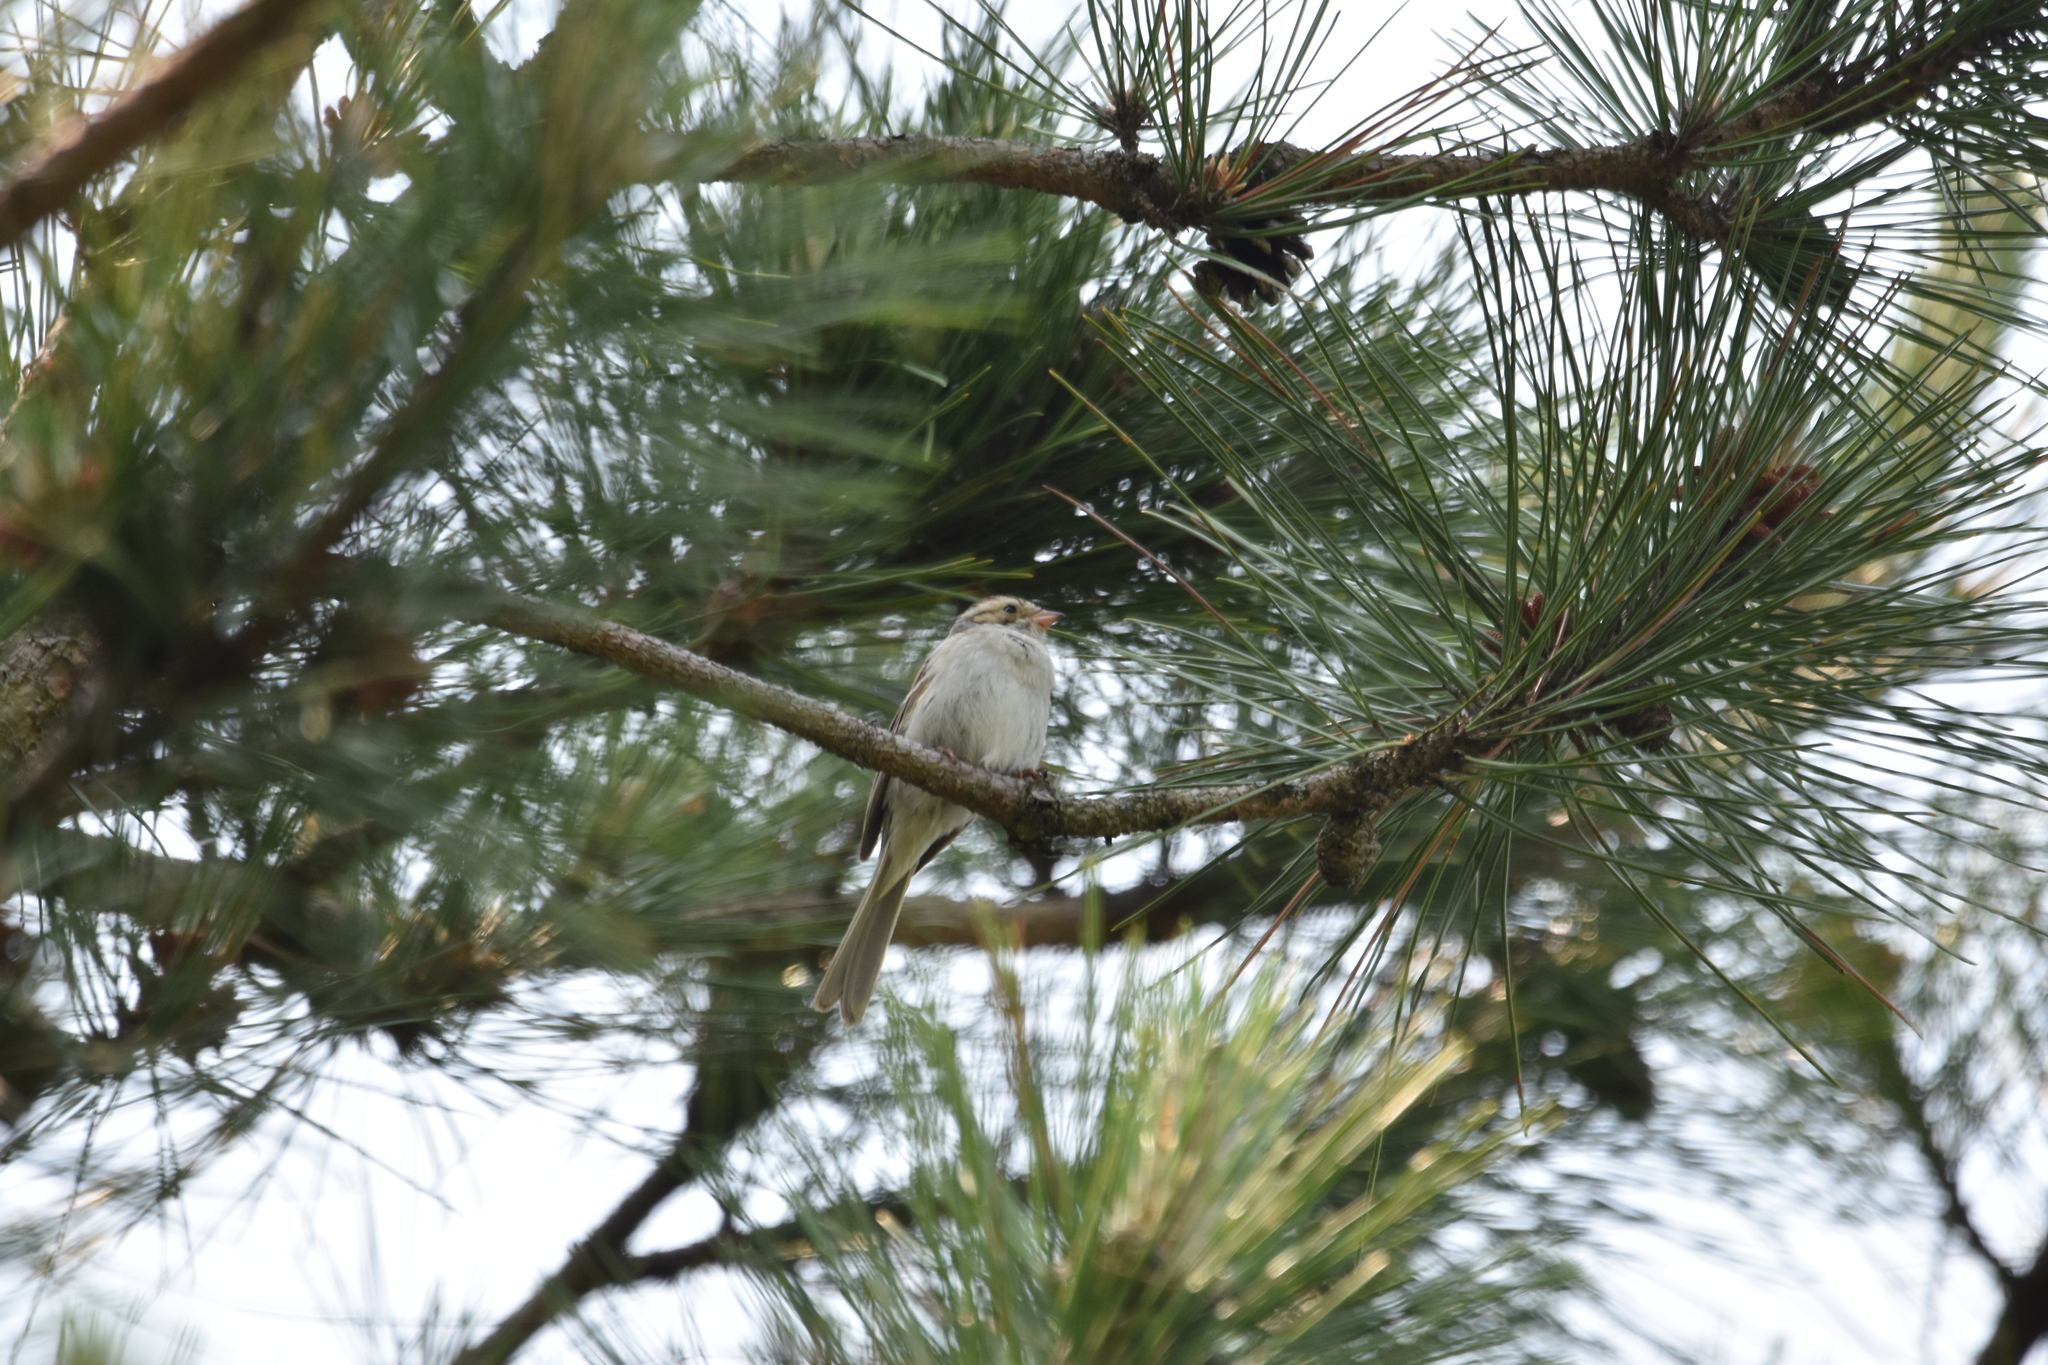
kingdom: Animalia
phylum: Chordata
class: Aves
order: Passeriformes
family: Passerellidae
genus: Spizella
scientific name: Spizella pallida
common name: Clay-colored sparrow
